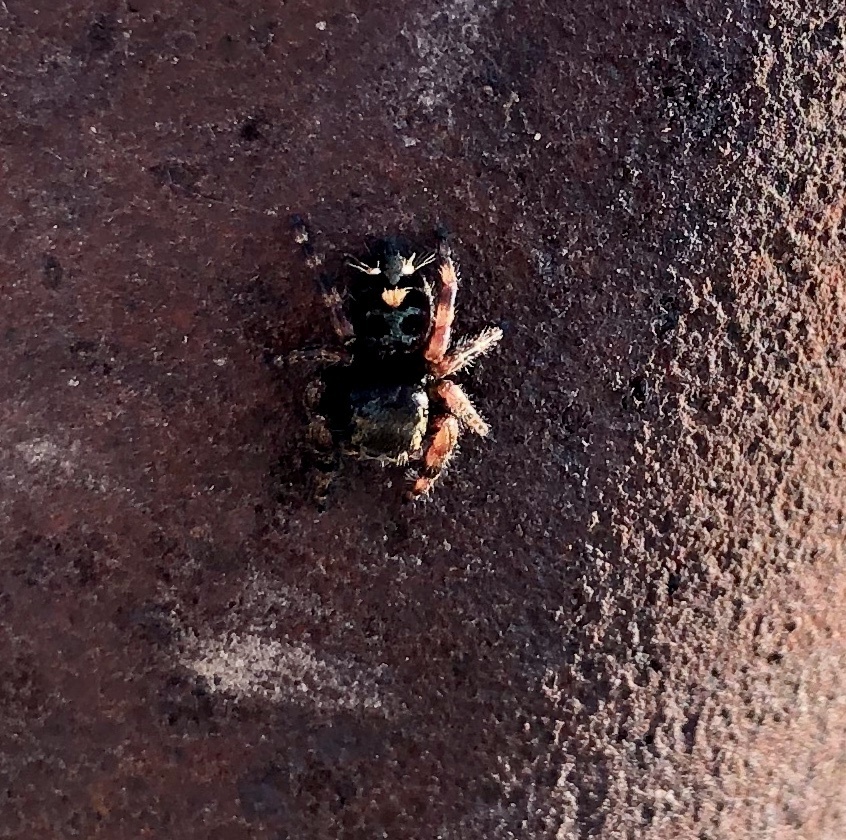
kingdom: Animalia
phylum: Arthropoda
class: Arachnida
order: Araneae
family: Salticidae
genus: Phidippus
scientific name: Phidippus audax
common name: Bold jumper
